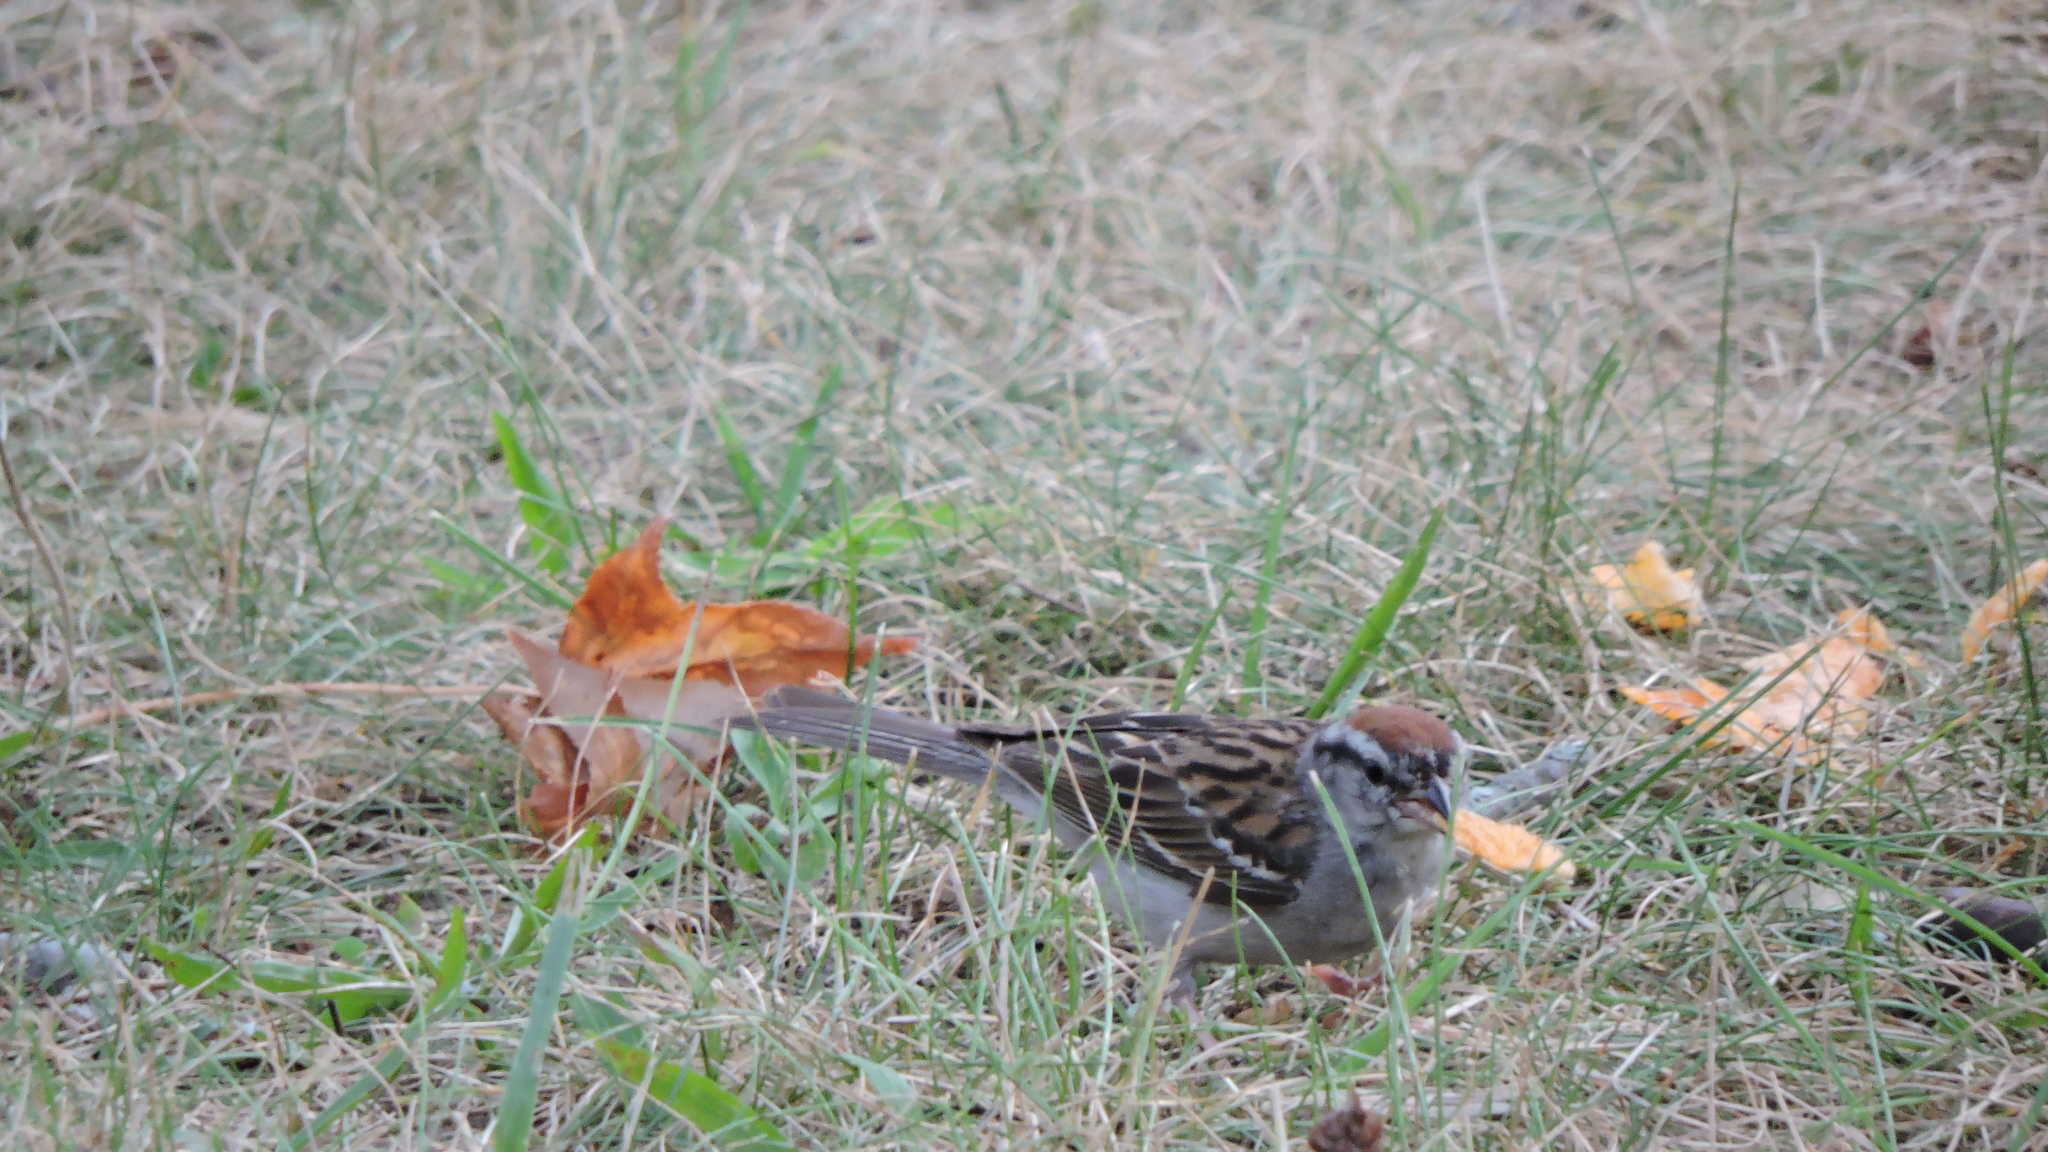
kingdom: Animalia
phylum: Chordata
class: Aves
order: Passeriformes
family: Passerellidae
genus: Spizella
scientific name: Spizella passerina
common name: Chipping sparrow
